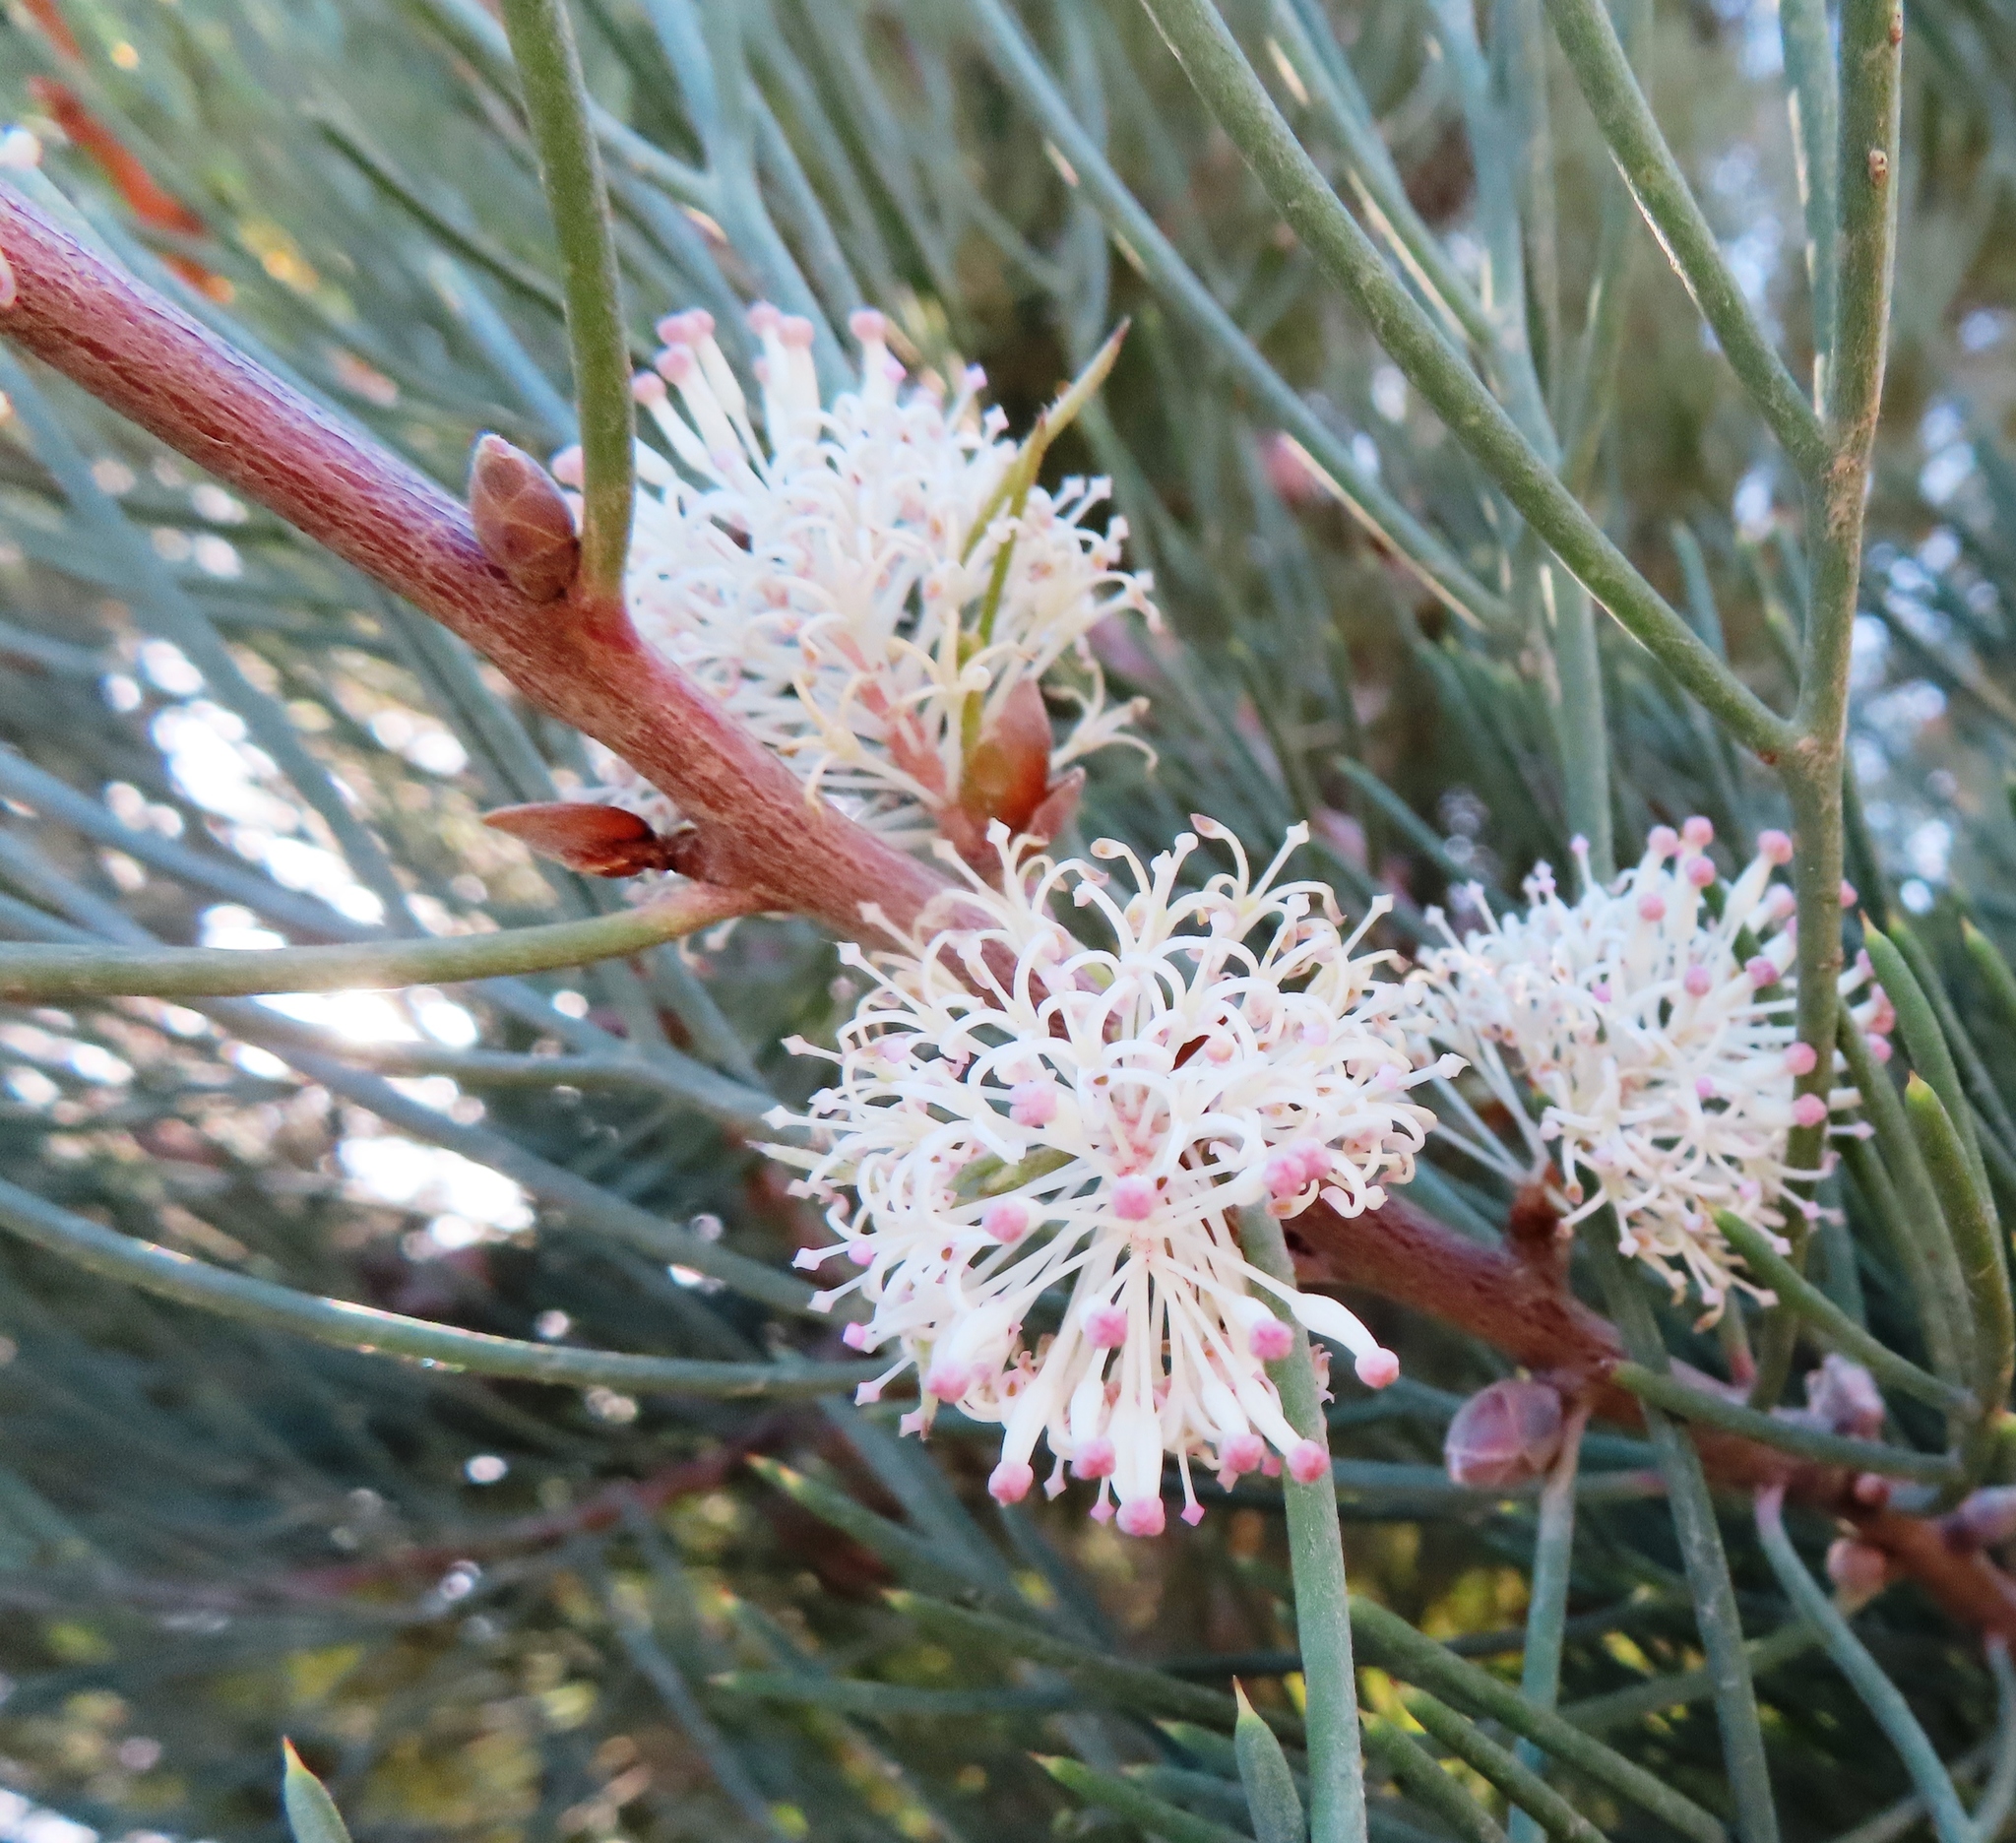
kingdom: Plantae
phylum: Tracheophyta
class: Magnoliopsida
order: Proteales
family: Proteaceae
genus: Hakea
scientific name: Hakea drupacea
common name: Sweet hakea
